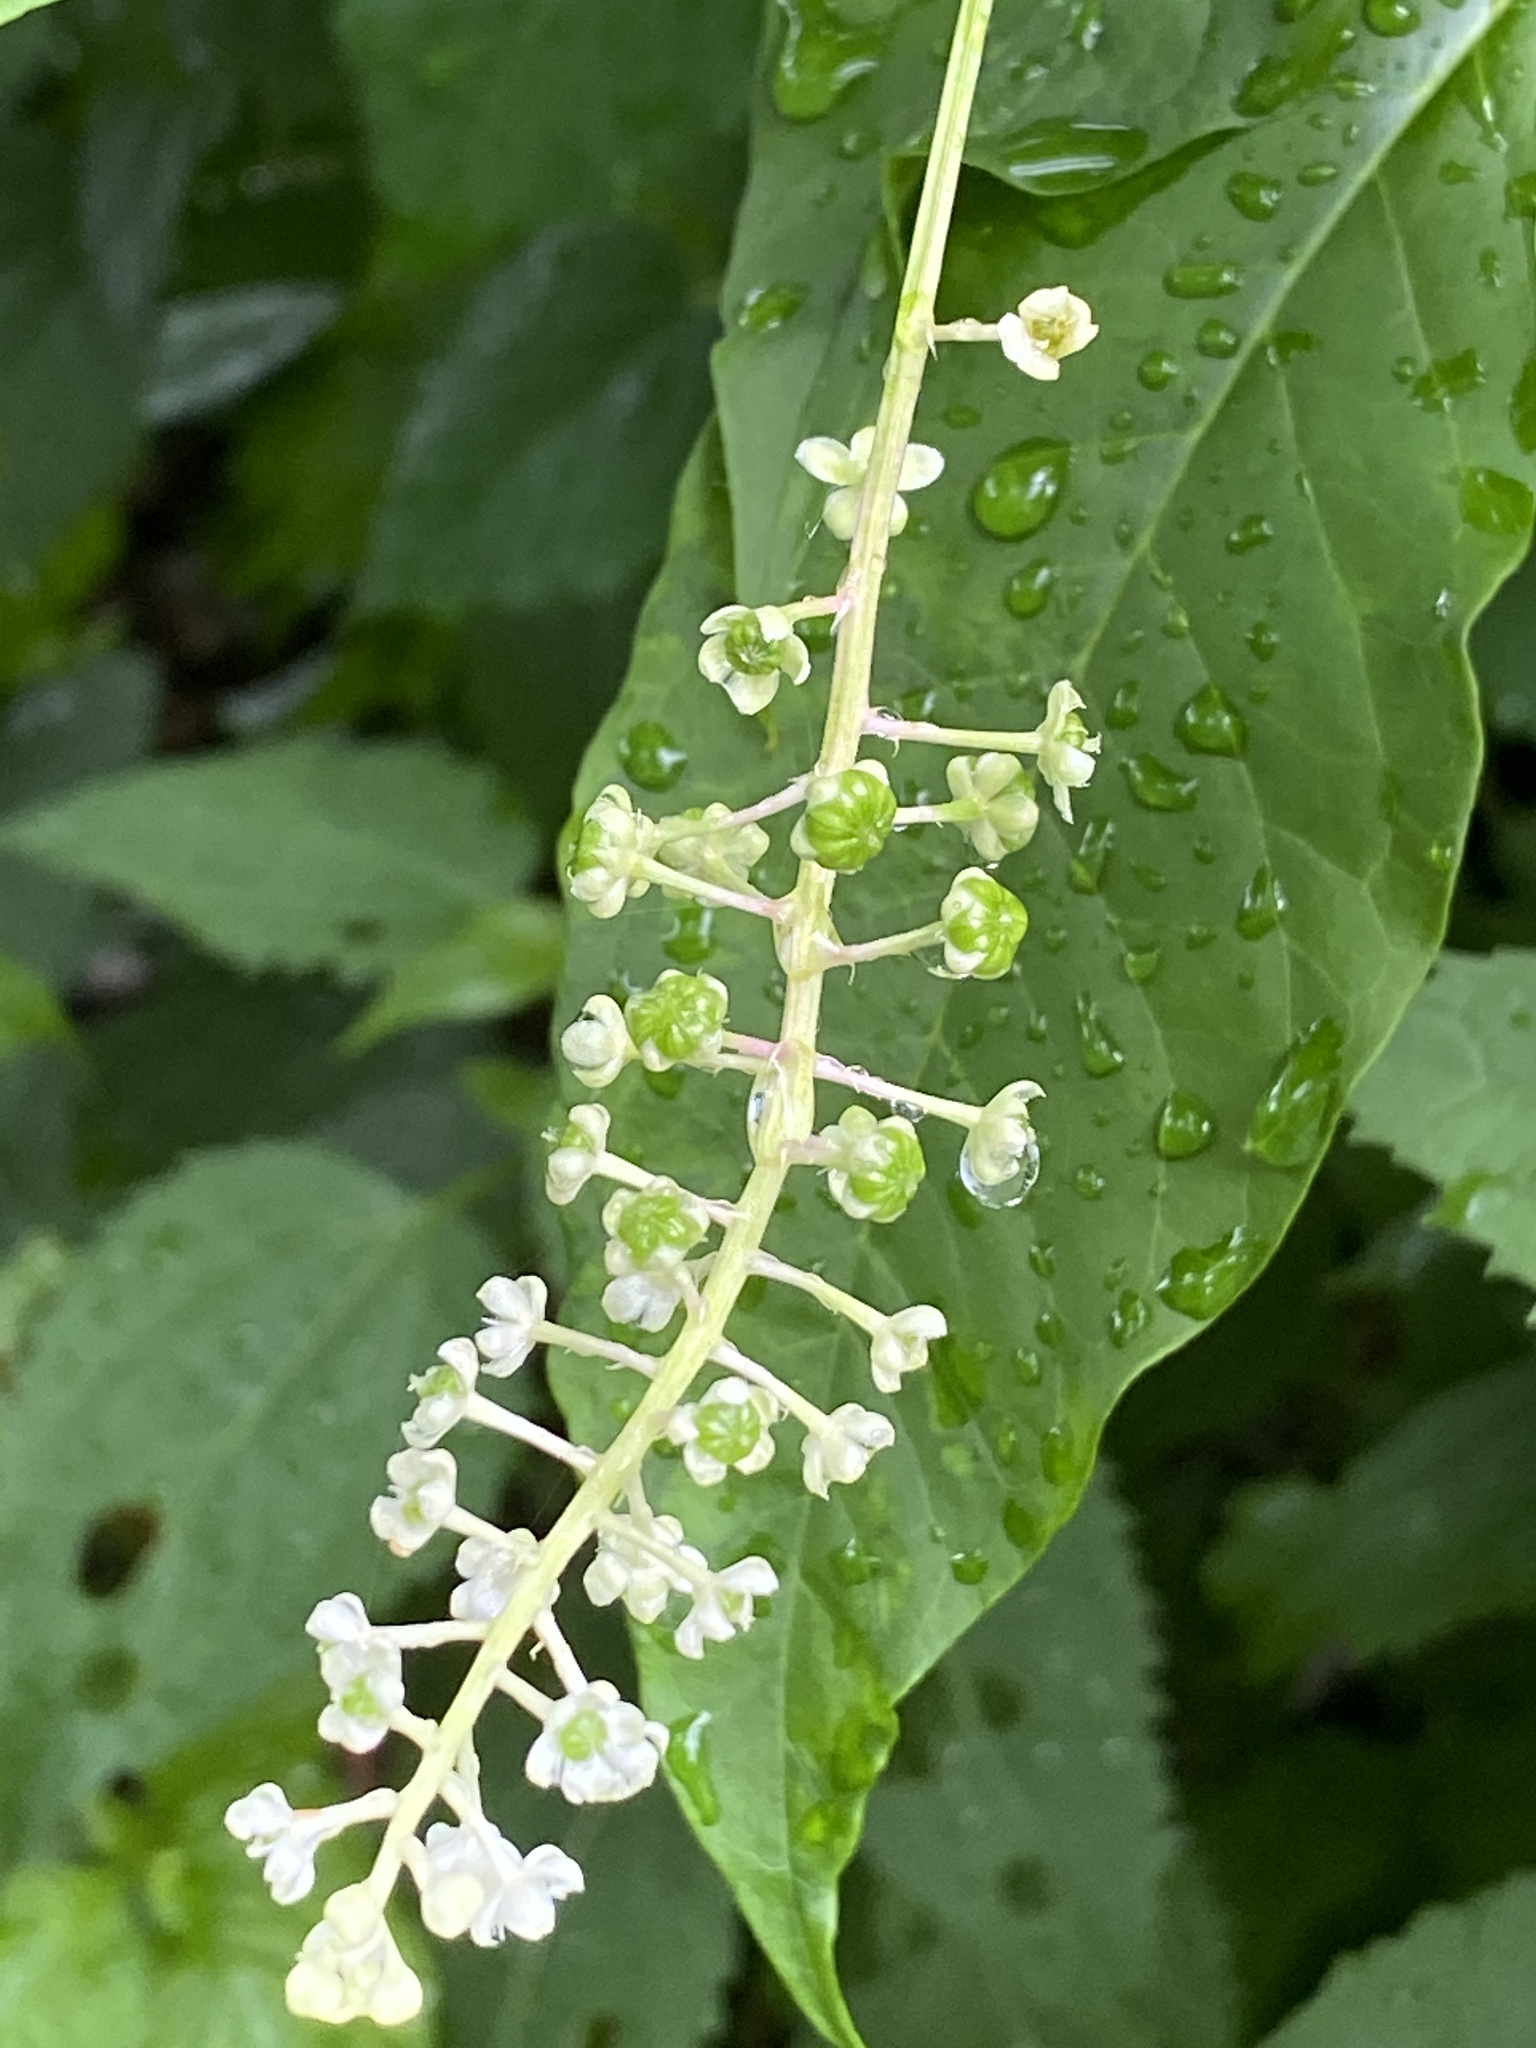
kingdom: Plantae
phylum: Tracheophyta
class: Magnoliopsida
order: Caryophyllales
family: Phytolaccaceae
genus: Phytolacca
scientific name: Phytolacca americana
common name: American pokeweed
